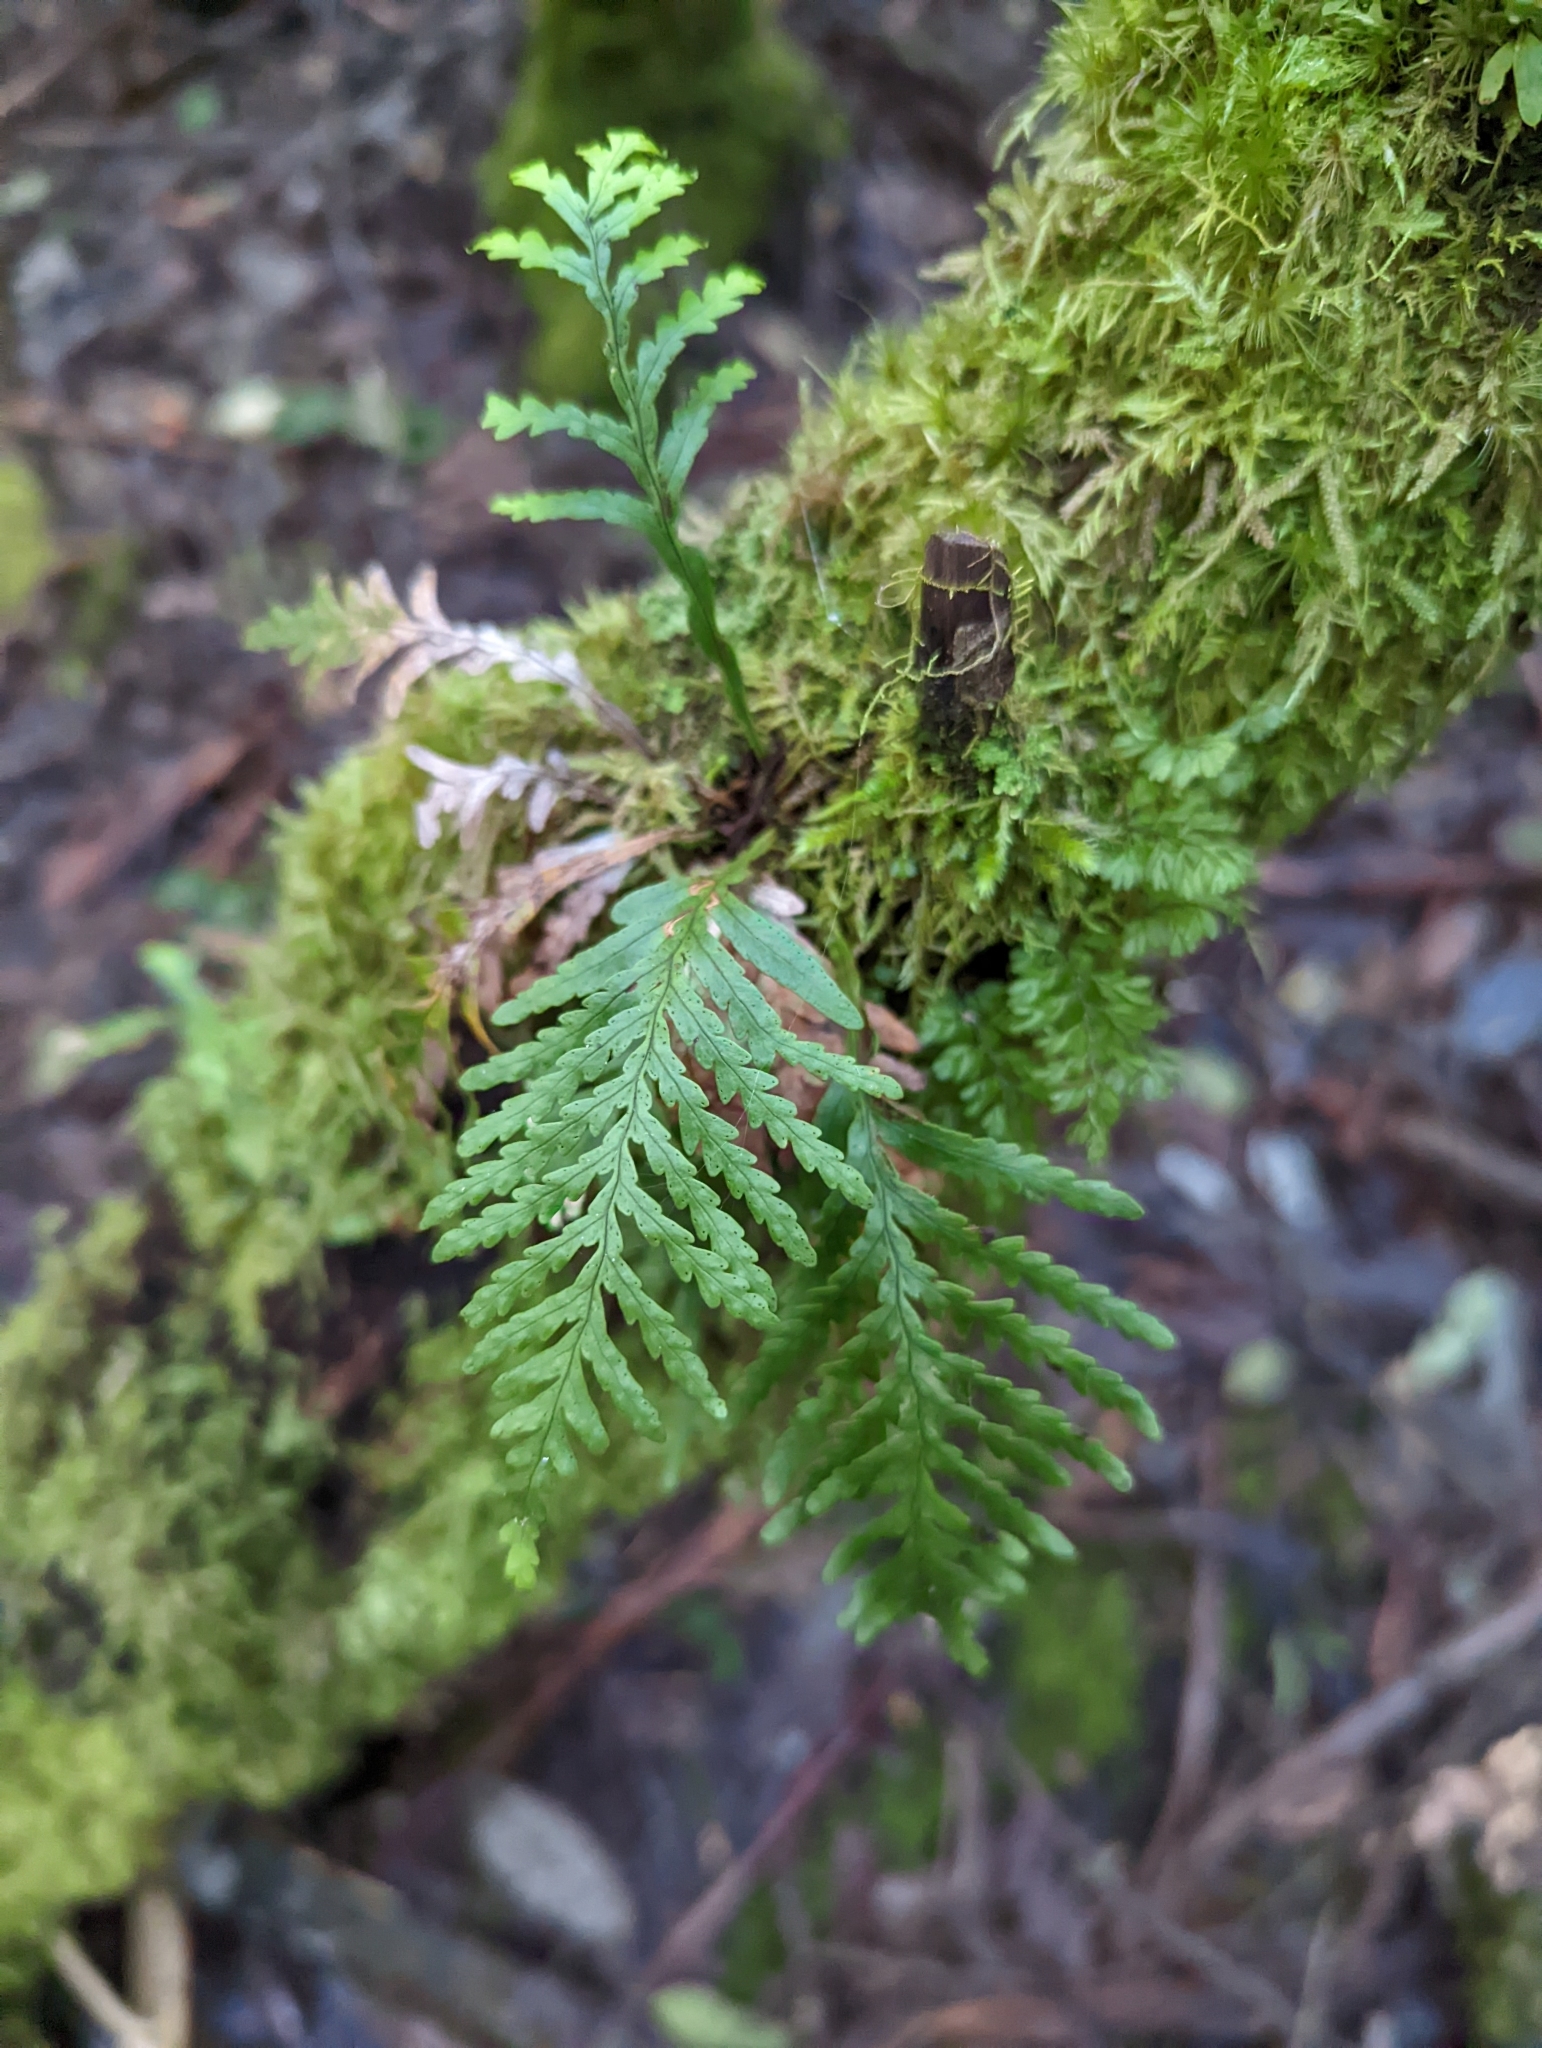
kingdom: Plantae
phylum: Tracheophyta
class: Polypodiopsida
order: Polypodiales
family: Polypodiaceae
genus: Notogrammitis
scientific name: Notogrammitis heterophylla
